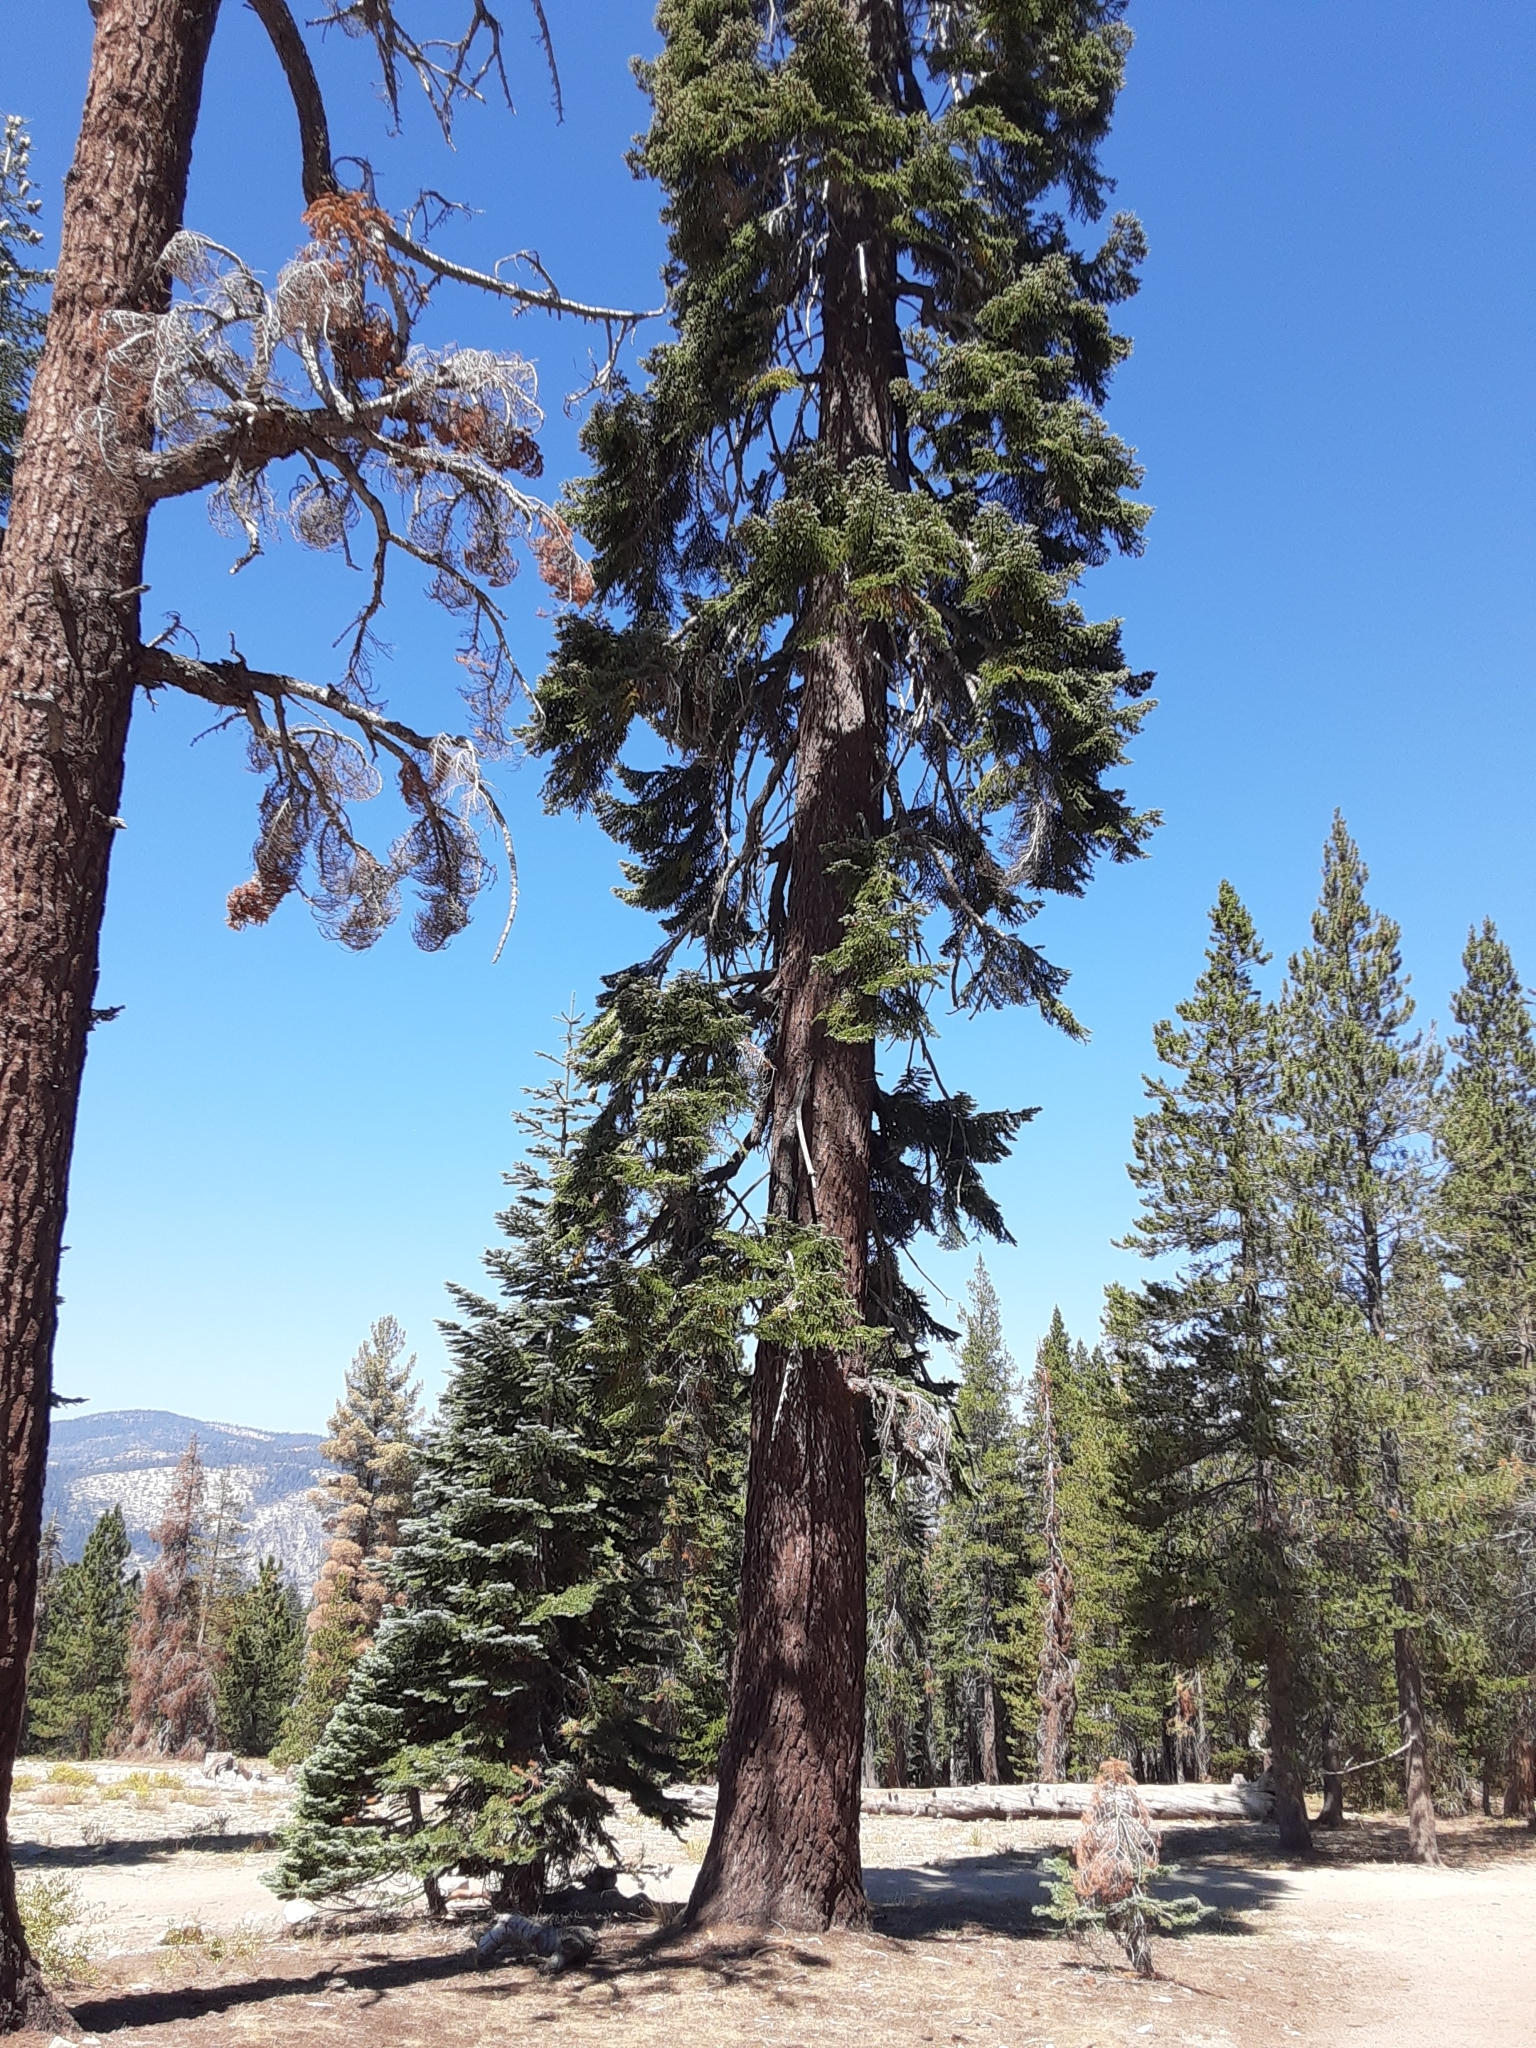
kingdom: Plantae
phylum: Tracheophyta
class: Pinopsida
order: Pinales
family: Pinaceae
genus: Abies
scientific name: Abies magnifica bis
